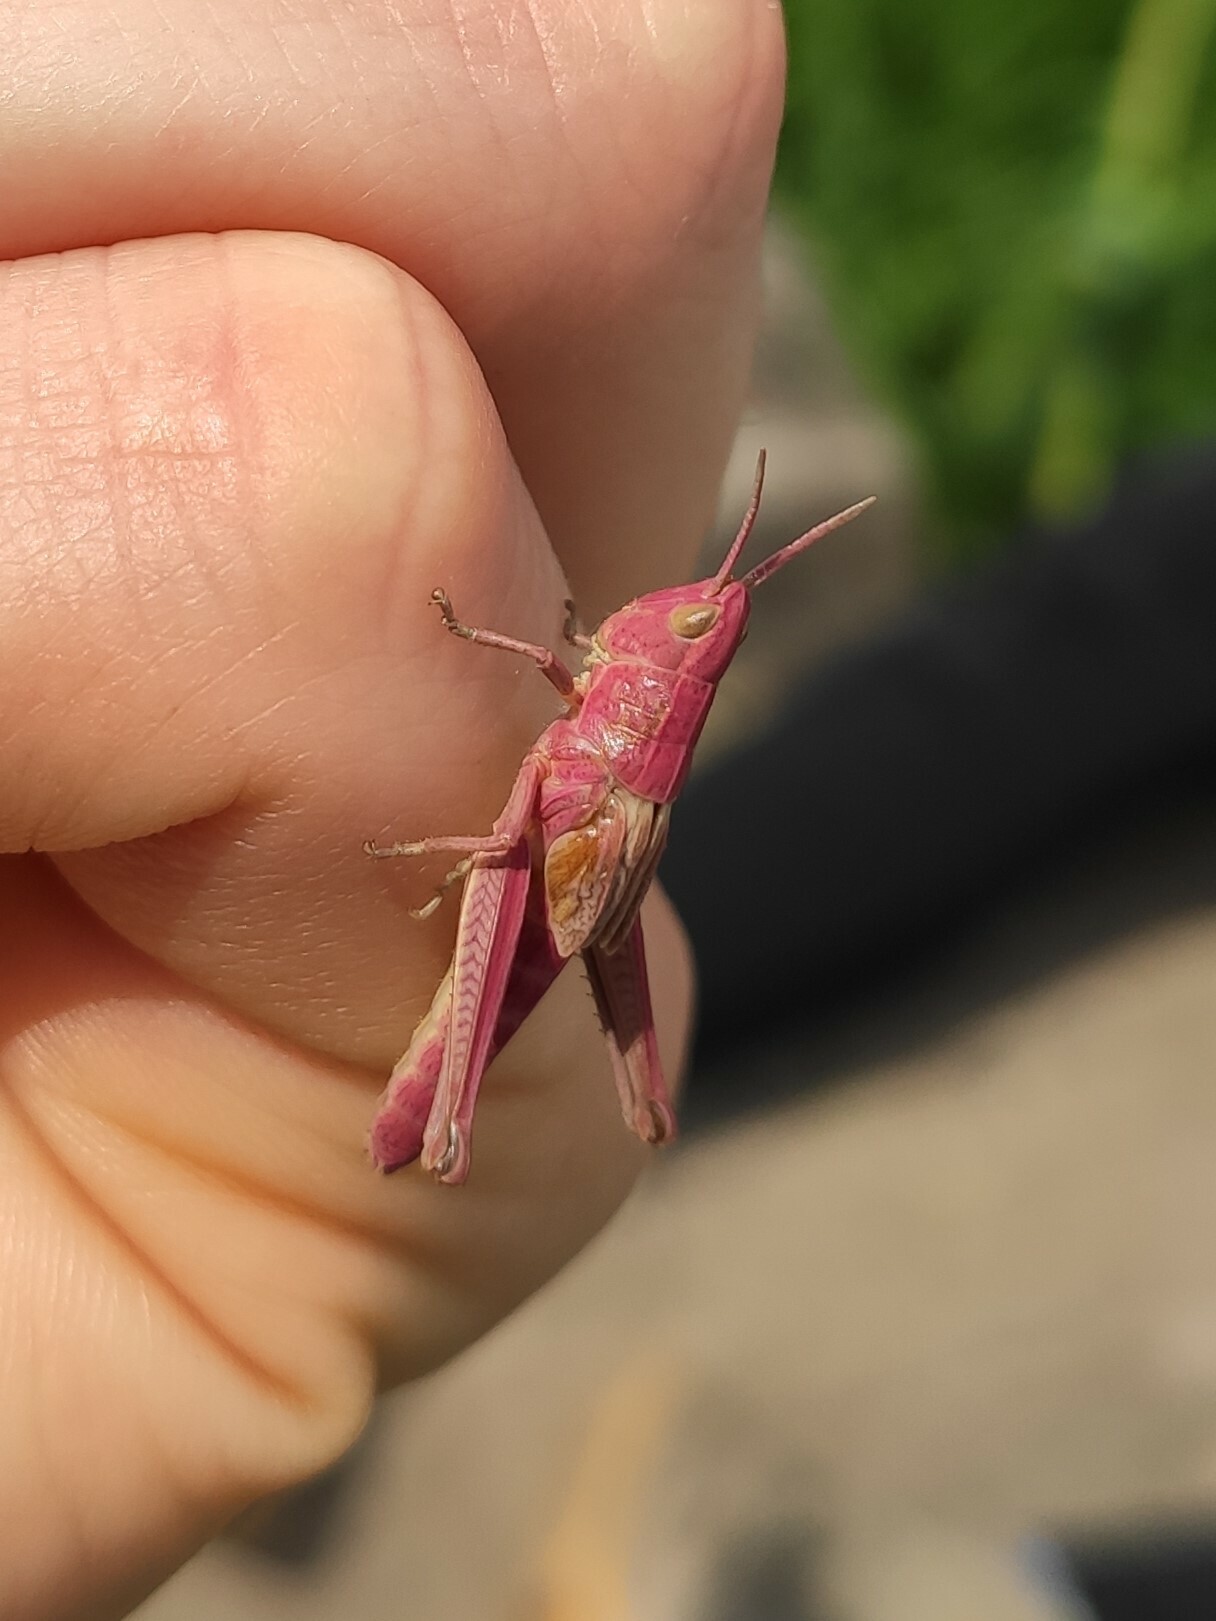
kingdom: Animalia
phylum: Arthropoda
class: Insecta
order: Orthoptera
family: Acrididae
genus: Chrysochraon
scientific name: Chrysochraon dispar
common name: Large gold grasshopper
